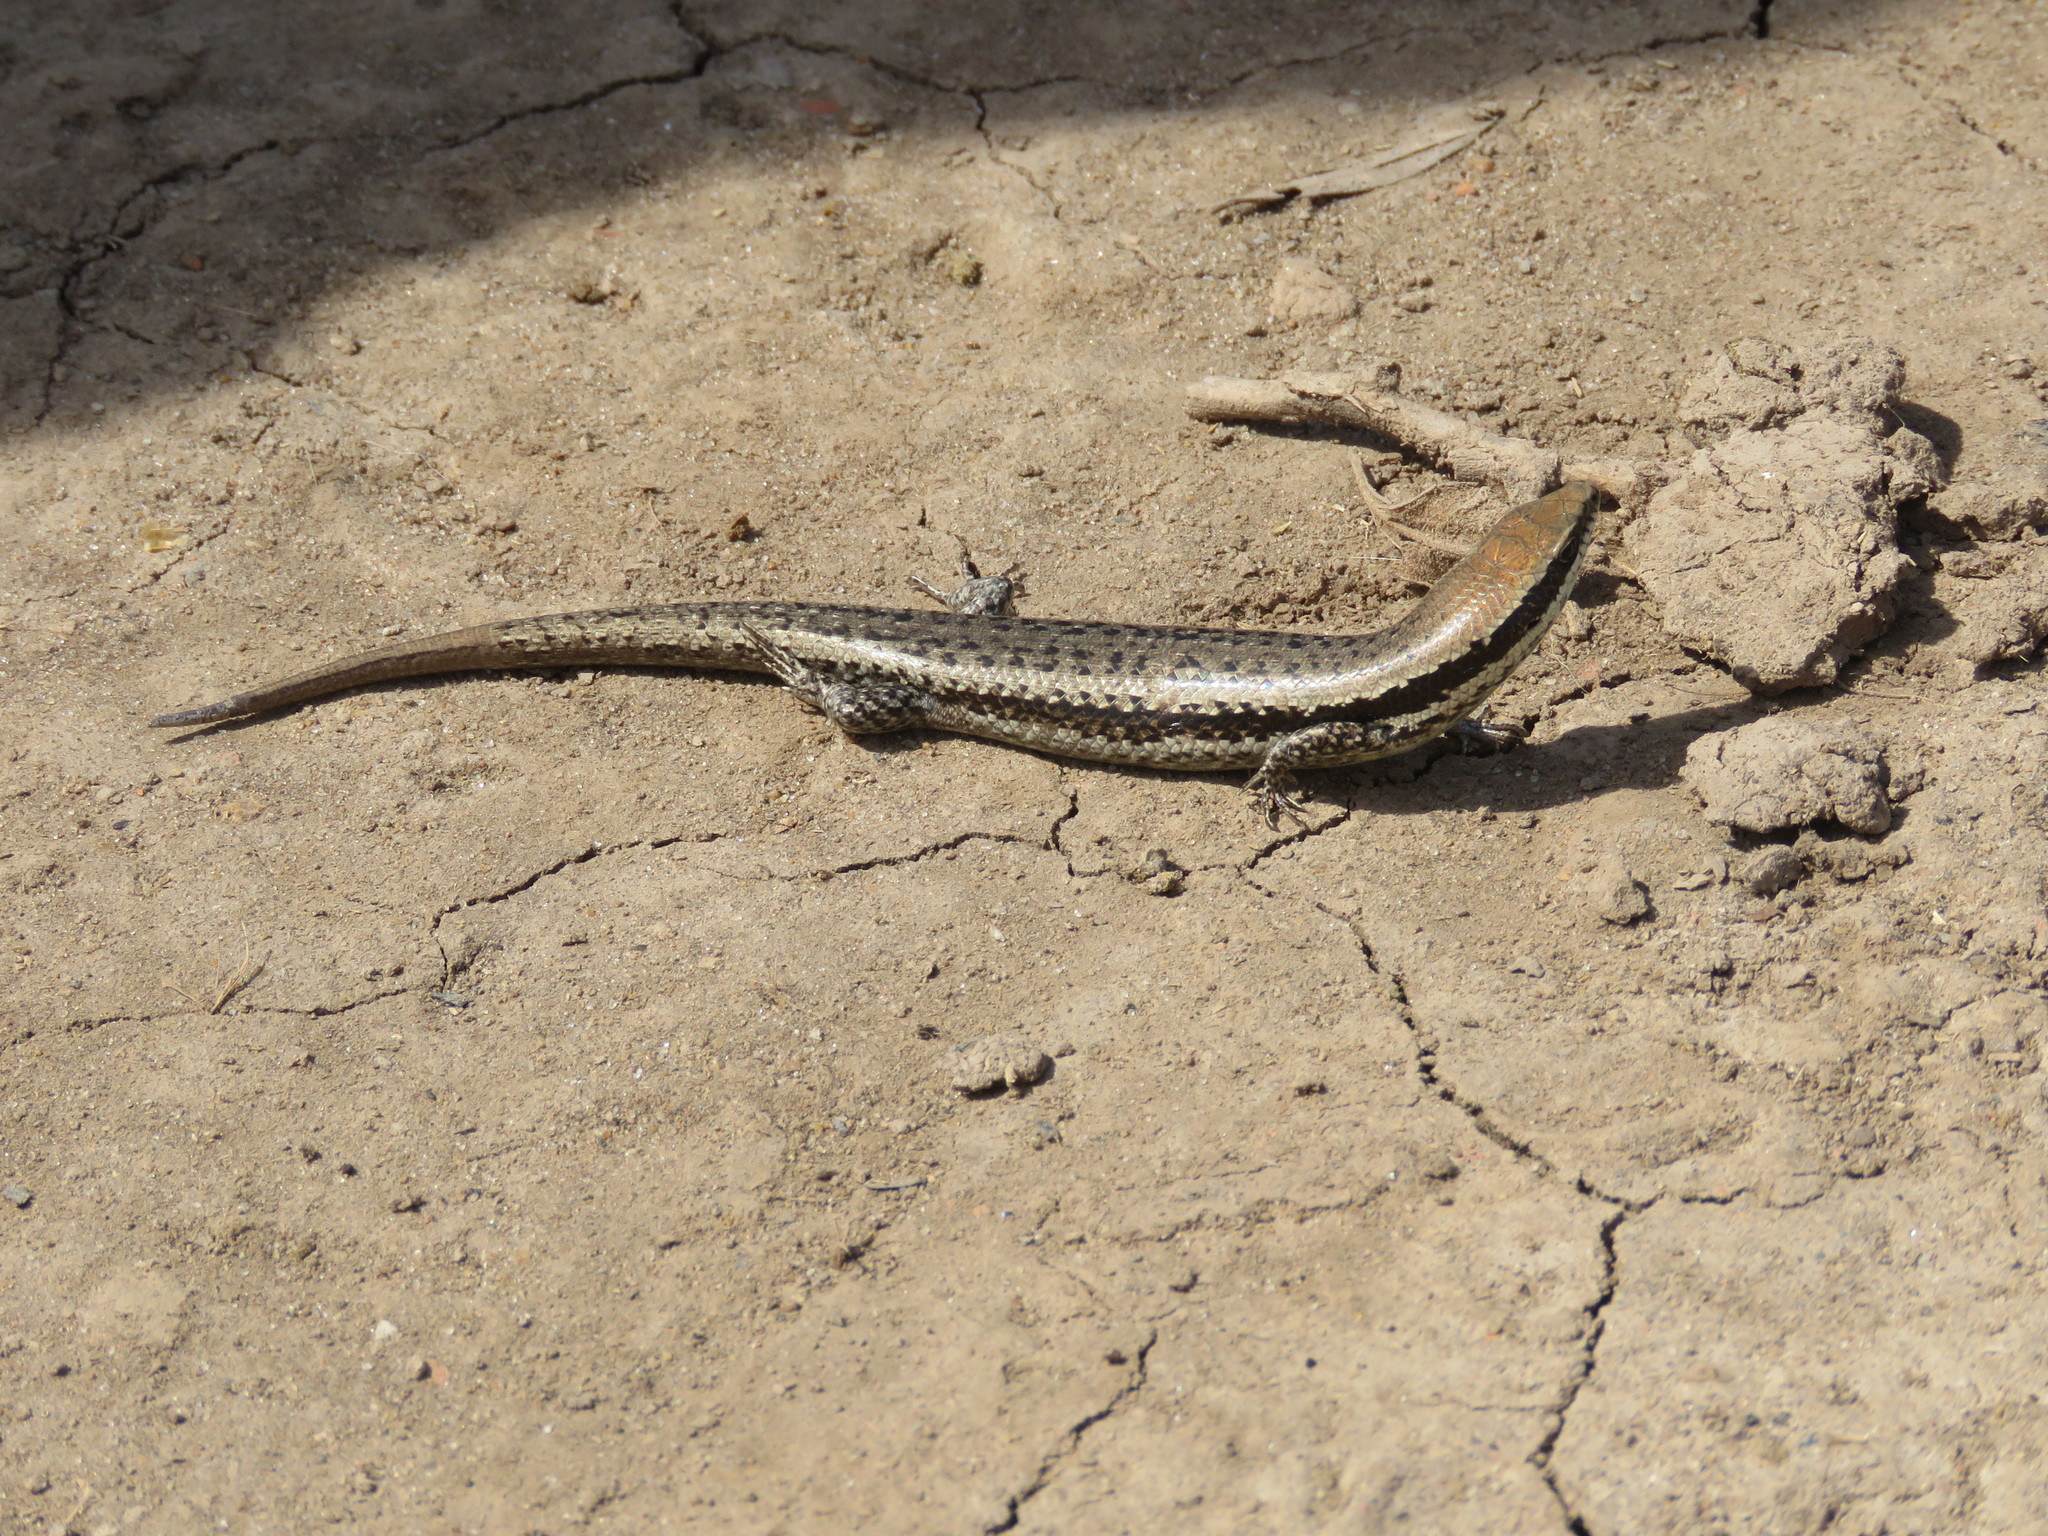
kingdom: Animalia
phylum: Chordata
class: Squamata
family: Scincidae
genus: Notomabuya
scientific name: Notomabuya frenata
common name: Cope's mabuya
